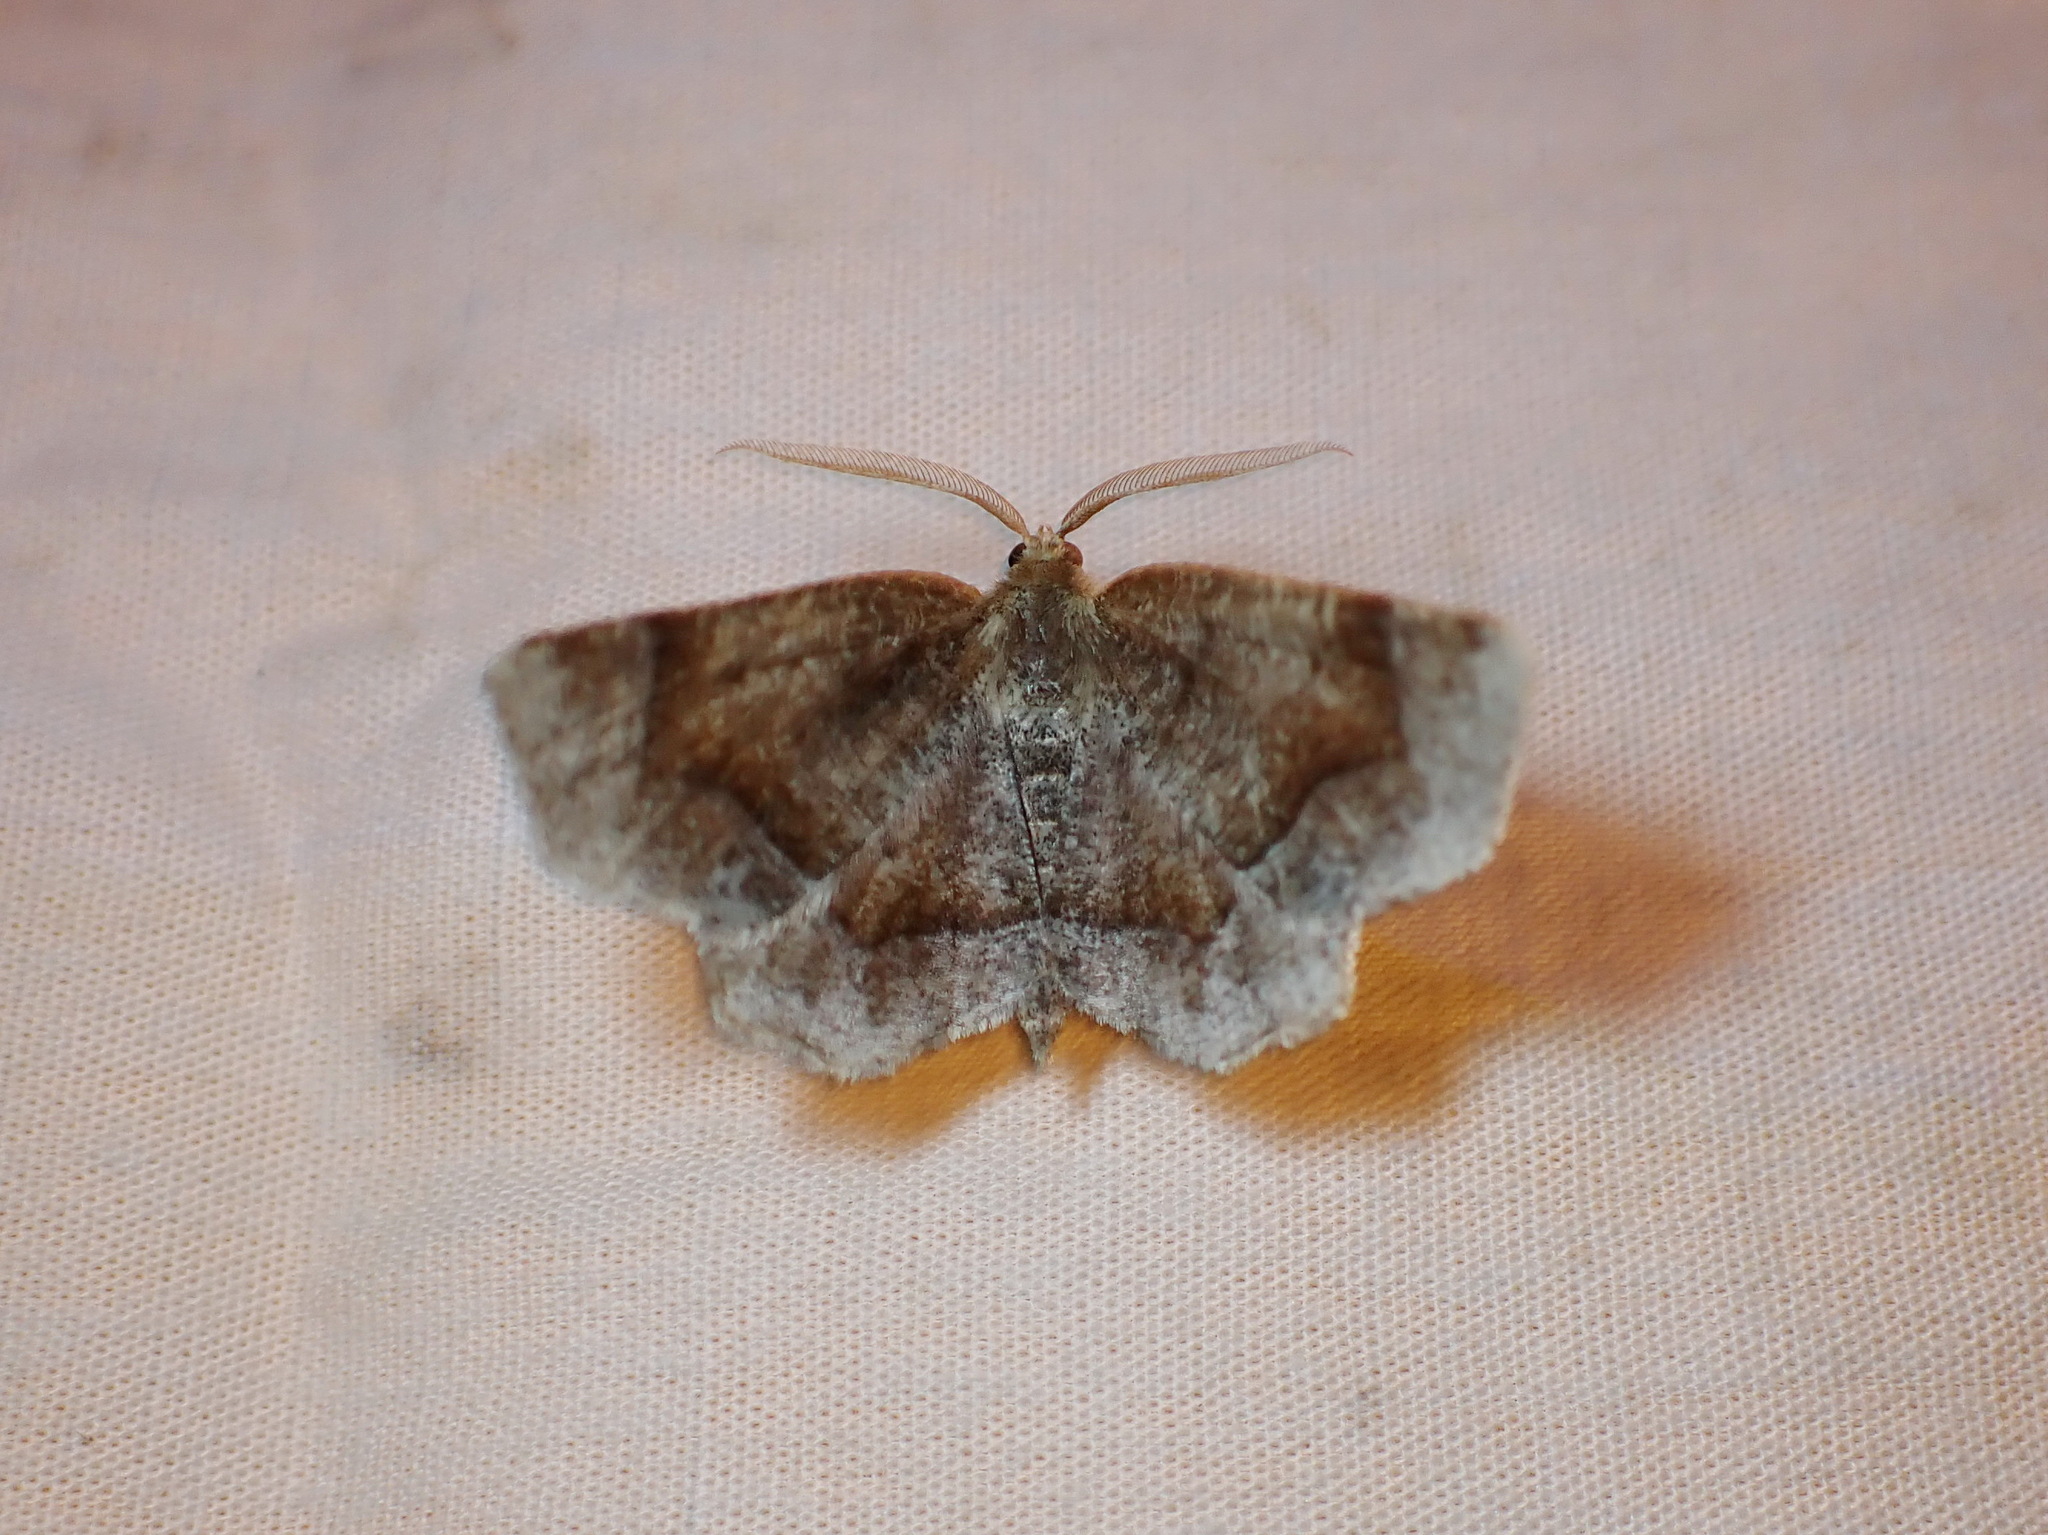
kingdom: Animalia
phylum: Arthropoda
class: Insecta
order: Lepidoptera
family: Geometridae
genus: Metarranthis
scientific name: Metarranthis hypochraria
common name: Common metarranthis
